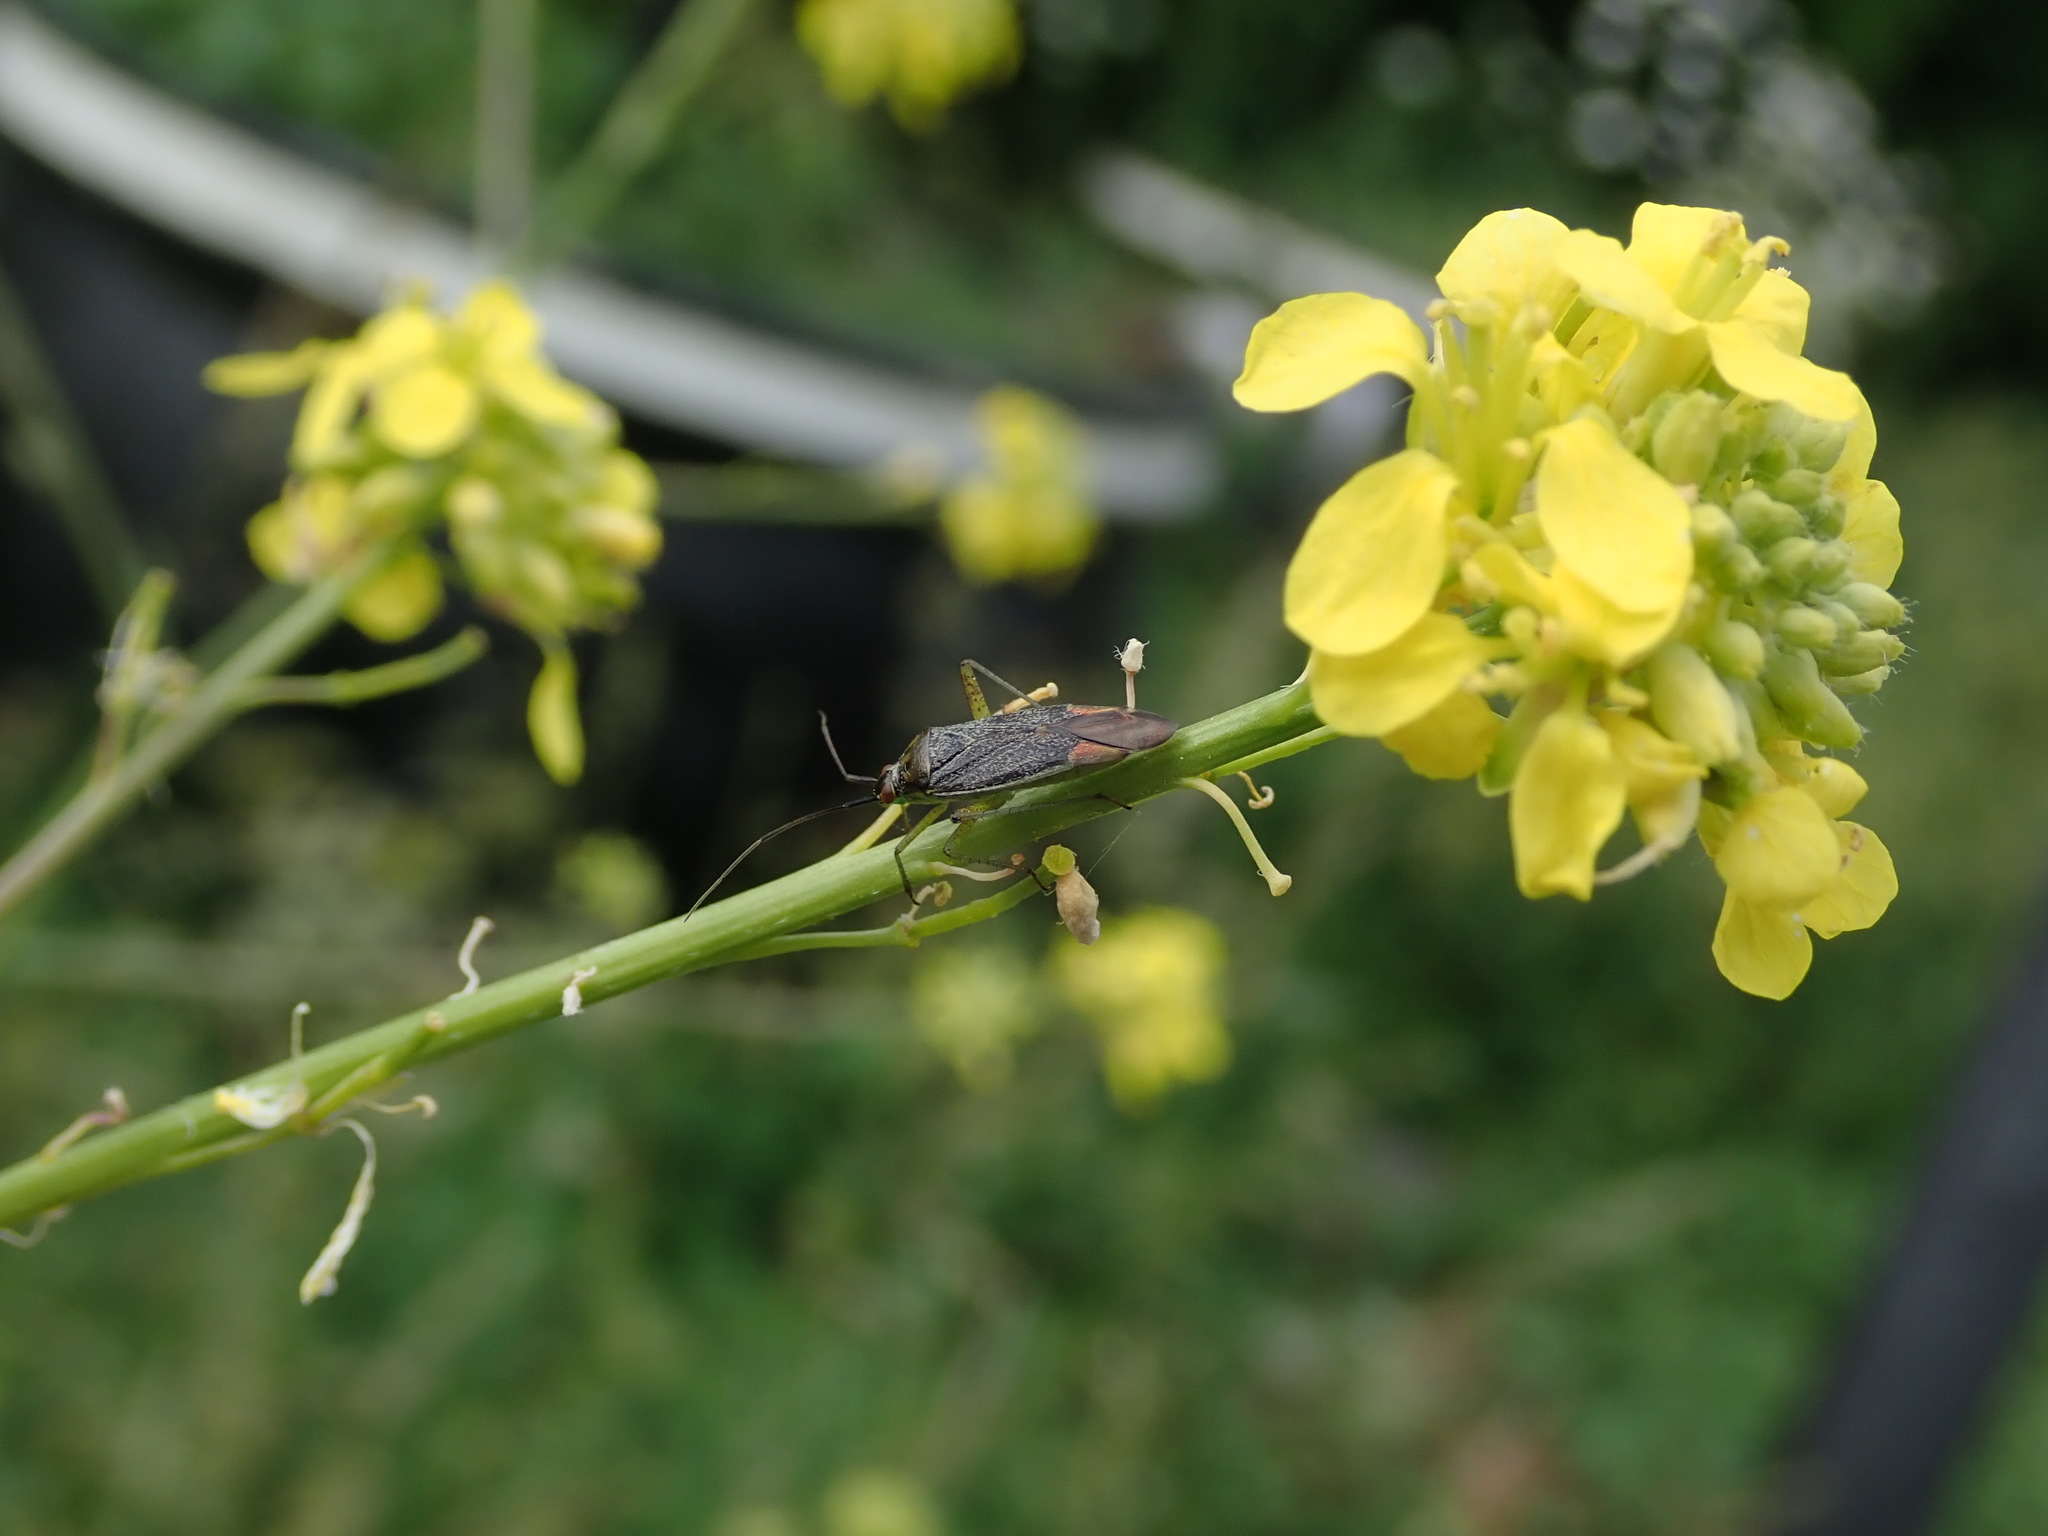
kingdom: Animalia
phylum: Arthropoda
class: Insecta
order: Hemiptera
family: Miridae
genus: Closterotomus
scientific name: Closterotomus trivialis
